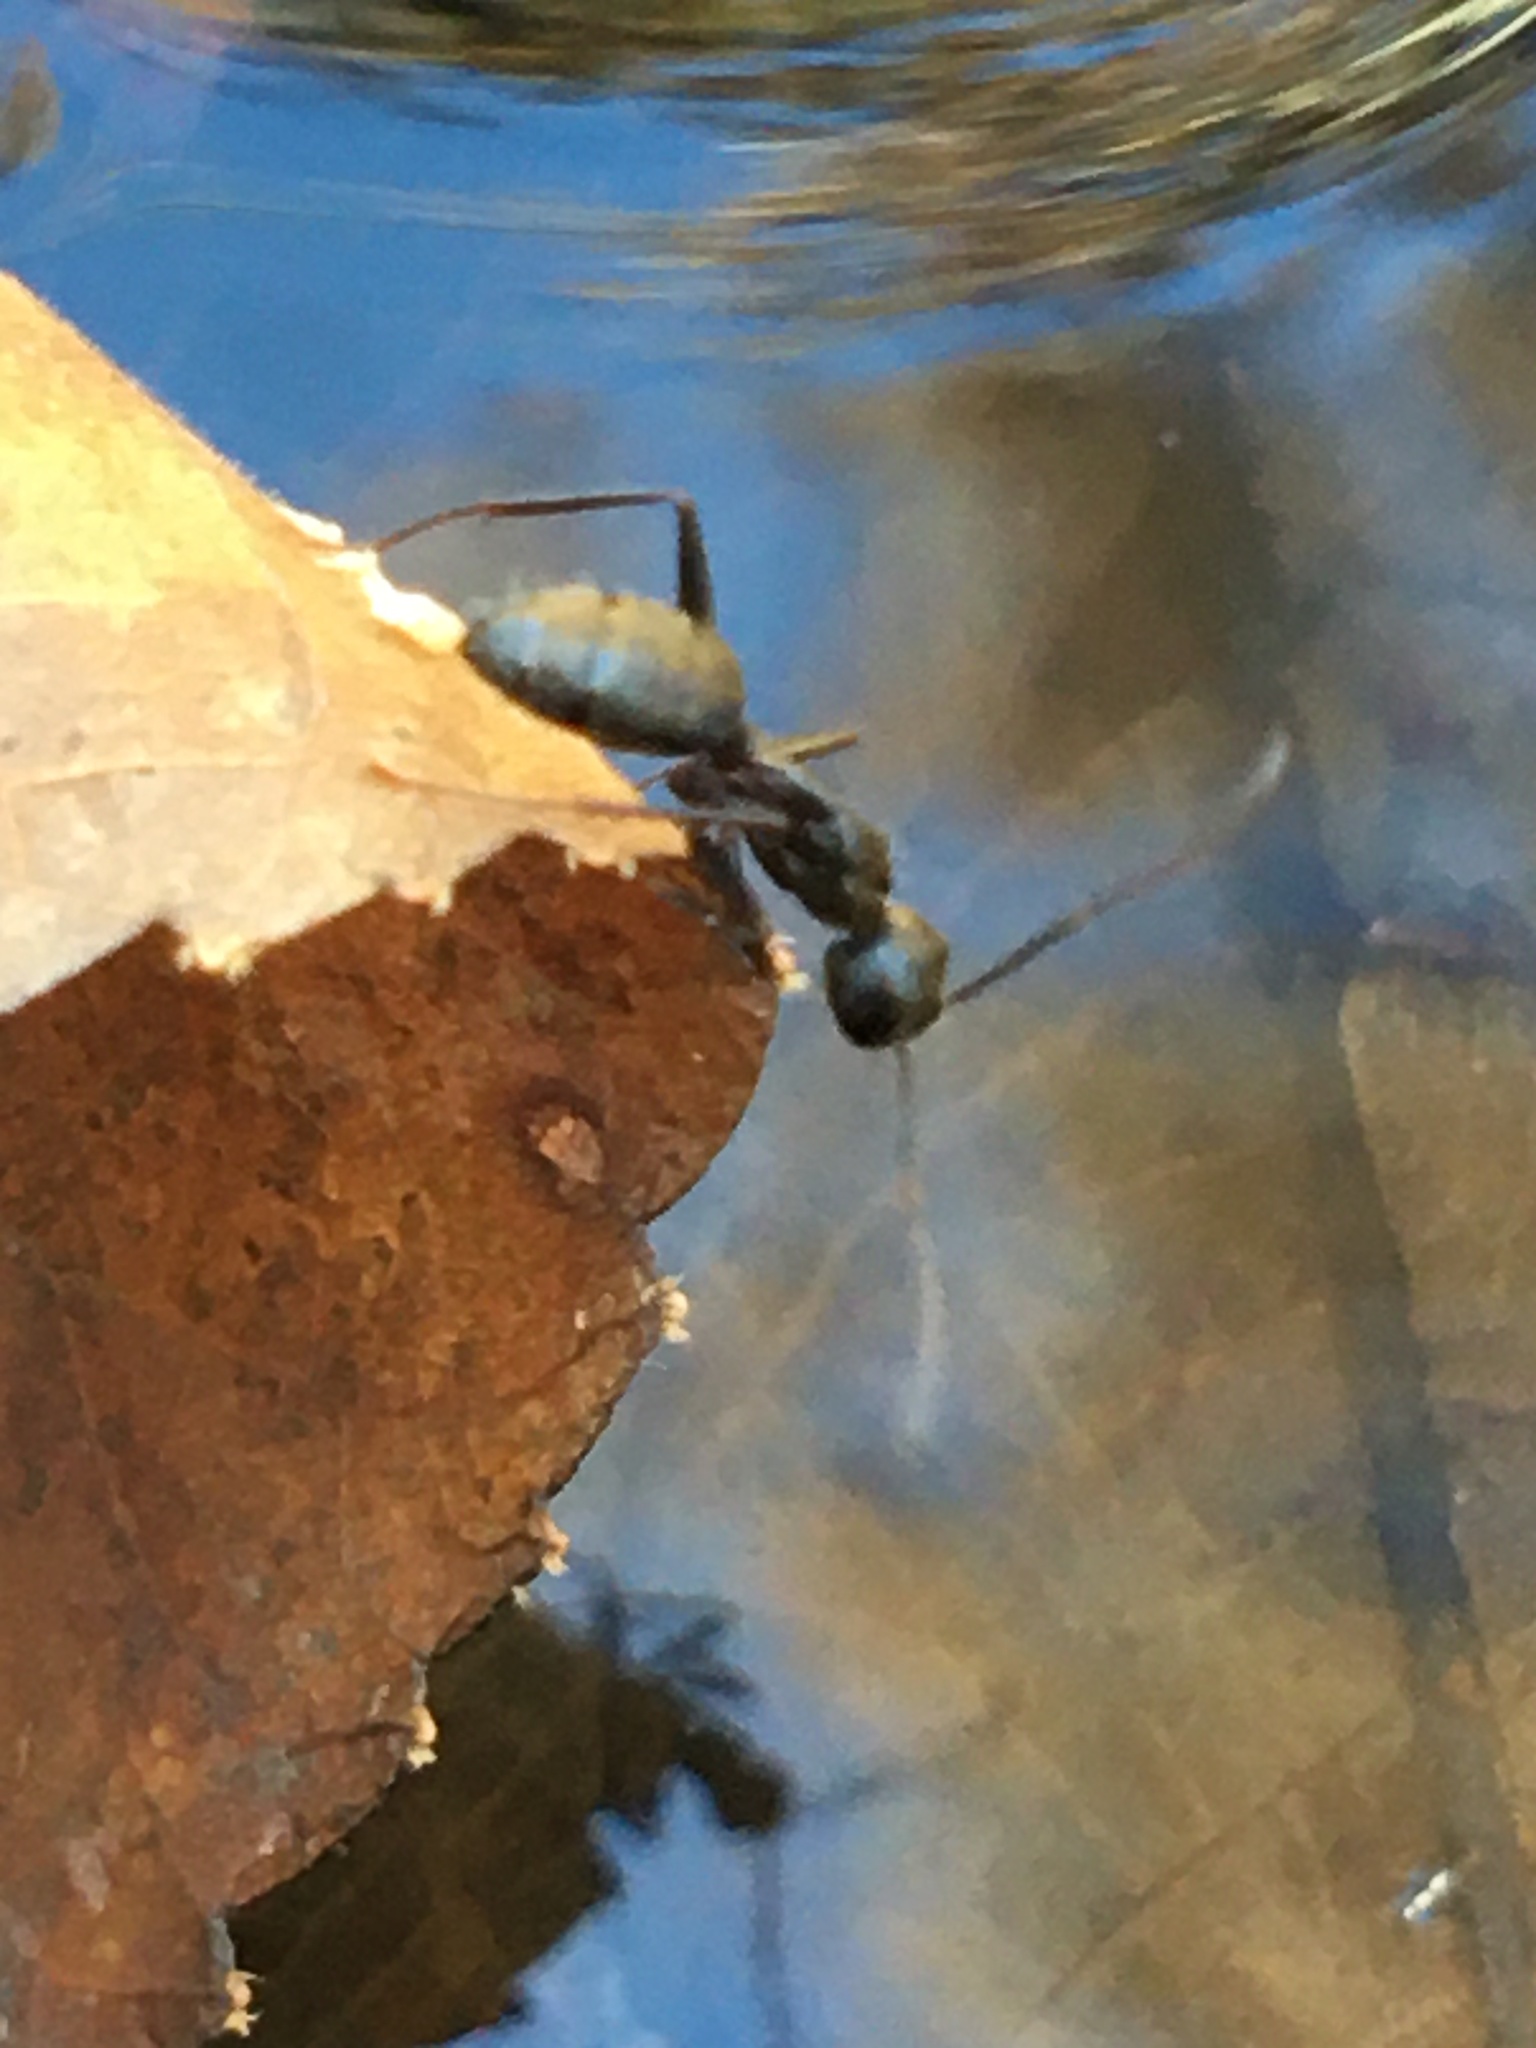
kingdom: Animalia
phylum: Arthropoda
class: Insecta
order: Hymenoptera
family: Formicidae
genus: Camponotus
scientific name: Camponotus pennsylvanicus
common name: Black carpenter ant
